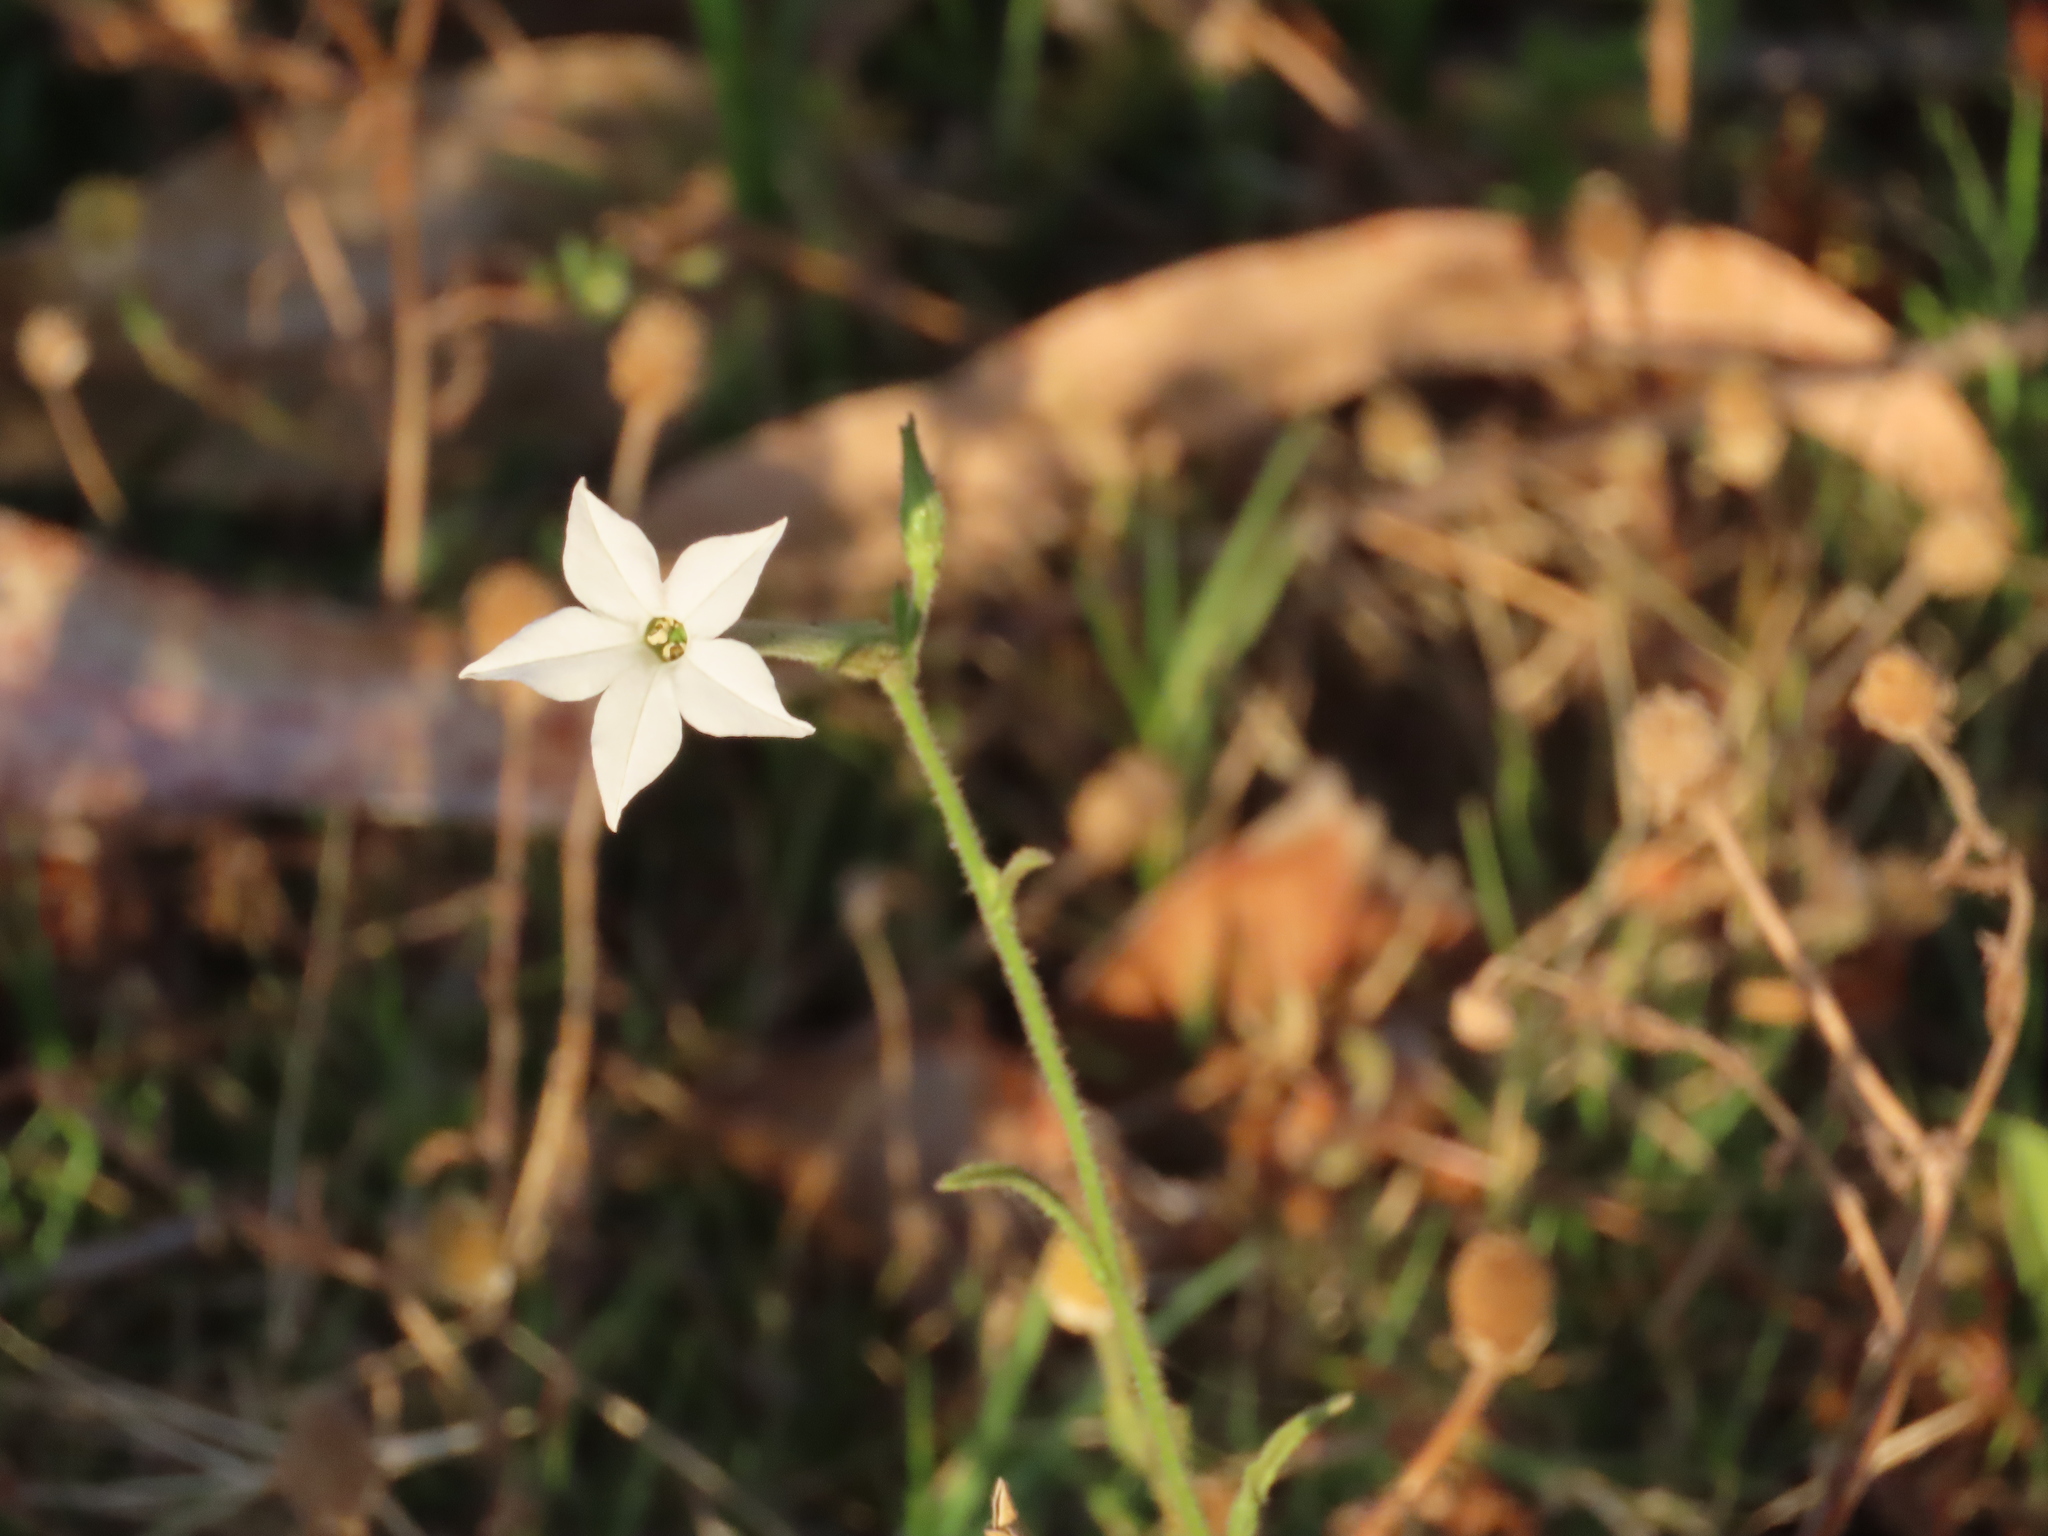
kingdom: Plantae
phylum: Tracheophyta
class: Magnoliopsida
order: Solanales
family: Solanaceae
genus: Nicotiana
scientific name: Nicotiana longiflora
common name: Long-flowered tobacco
